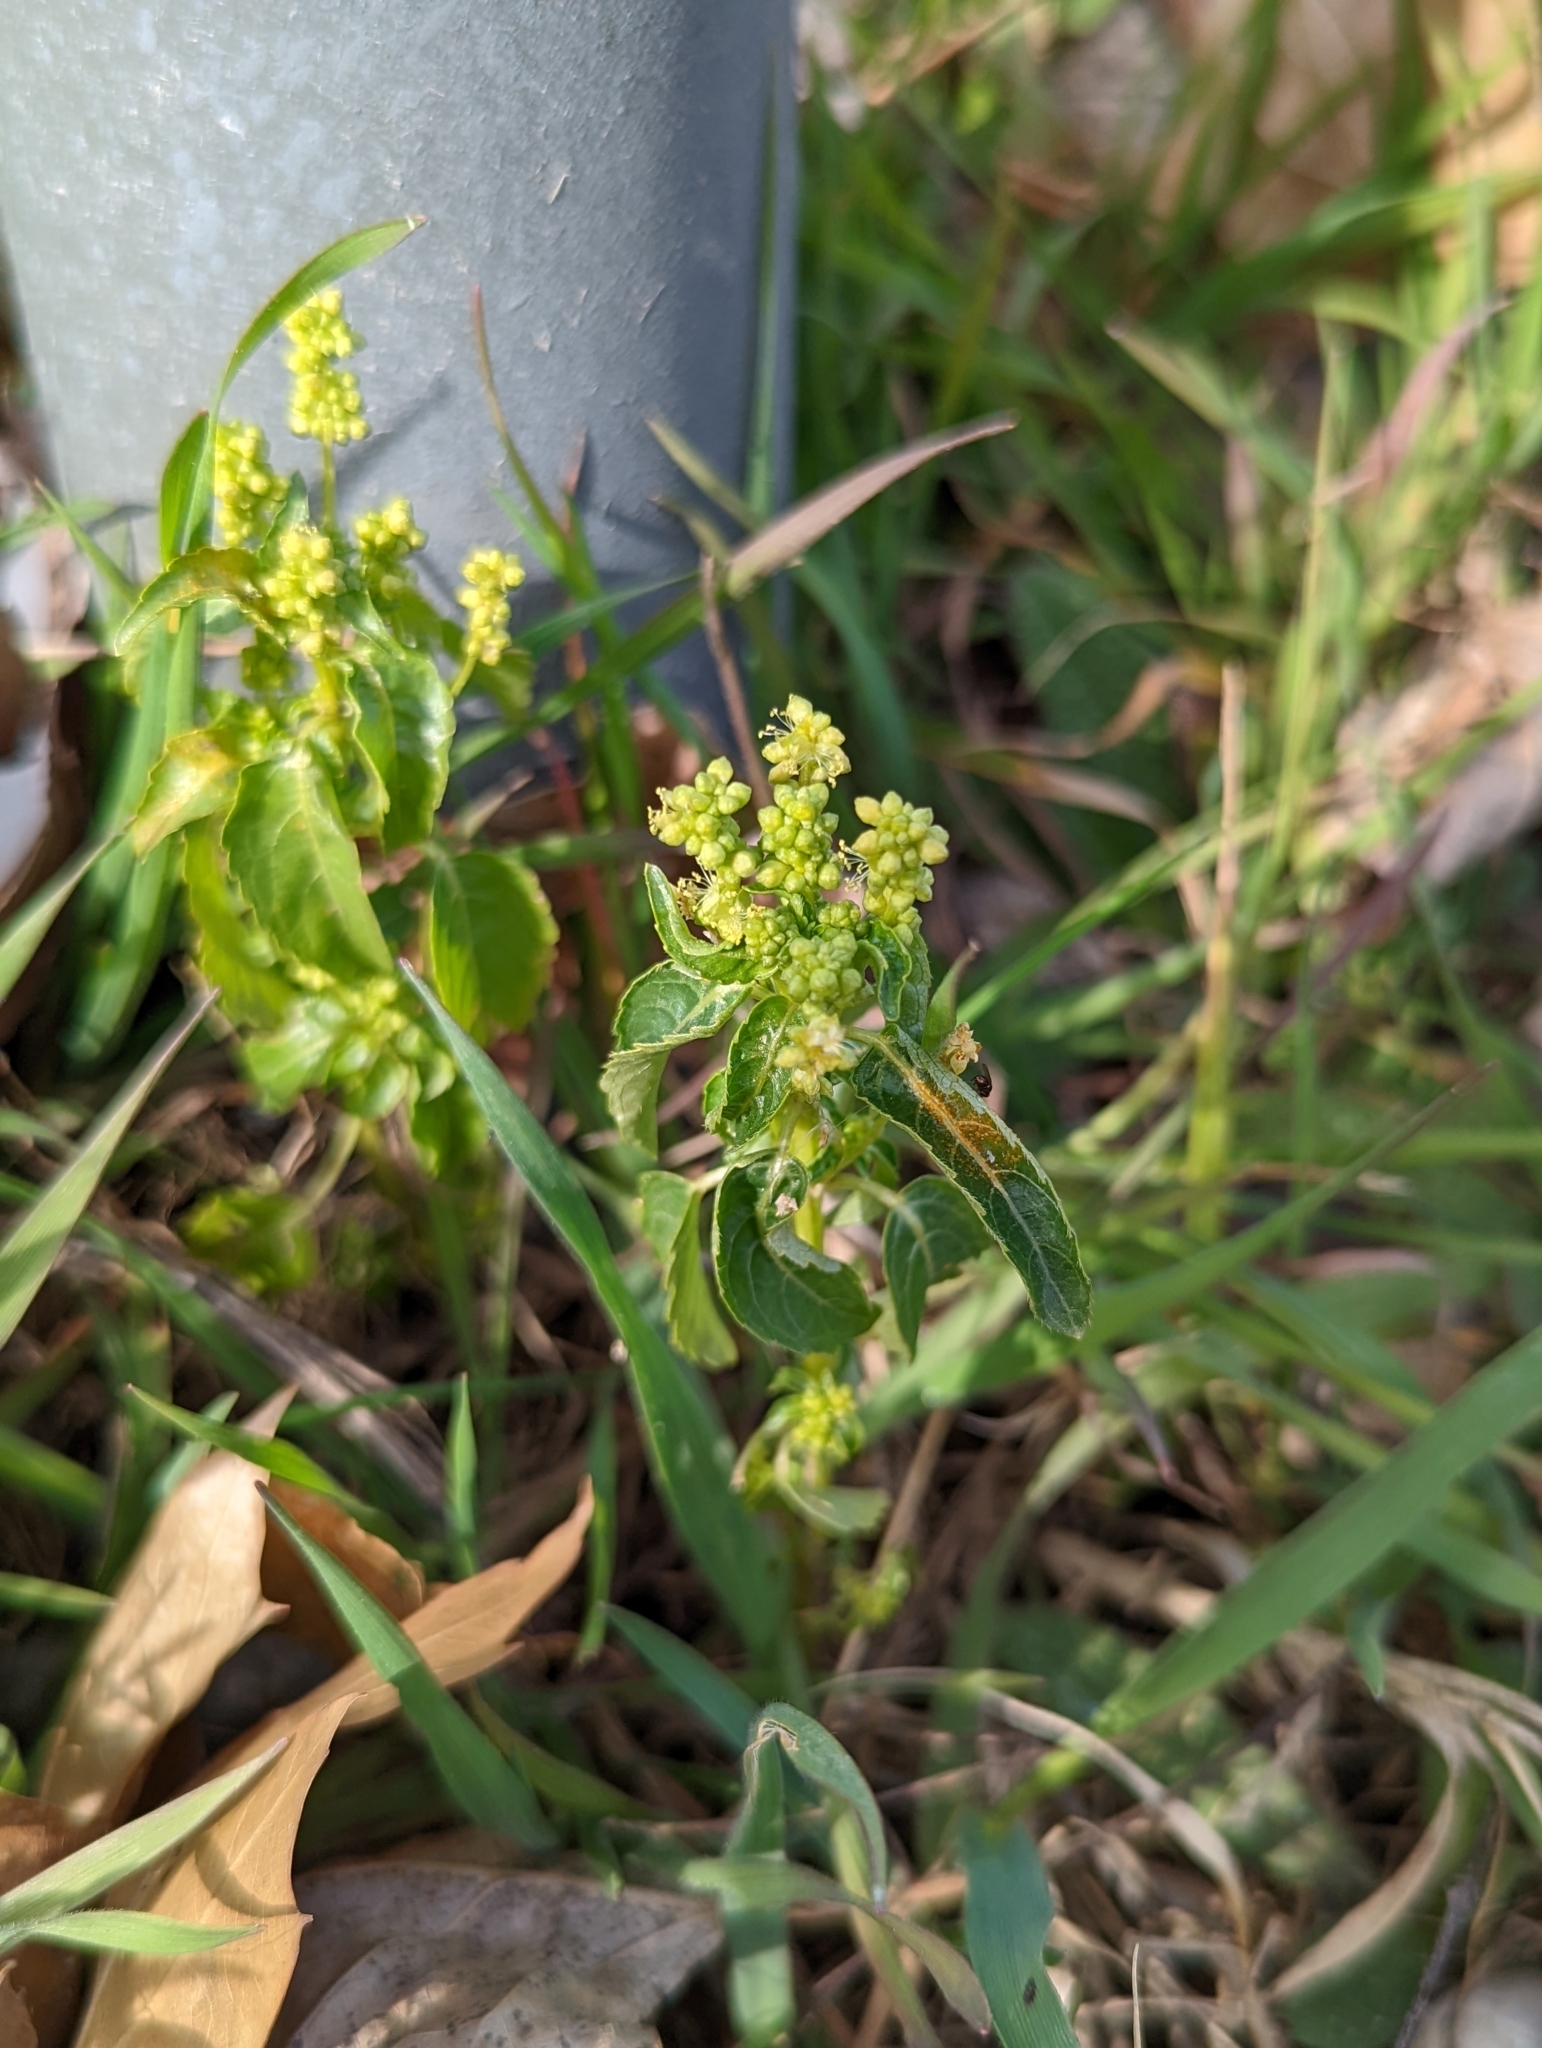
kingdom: Plantae
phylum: Tracheophyta
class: Magnoliopsida
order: Malpighiales
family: Euphorbiaceae
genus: Mercurialis
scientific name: Mercurialis annua
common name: Annual mercury
